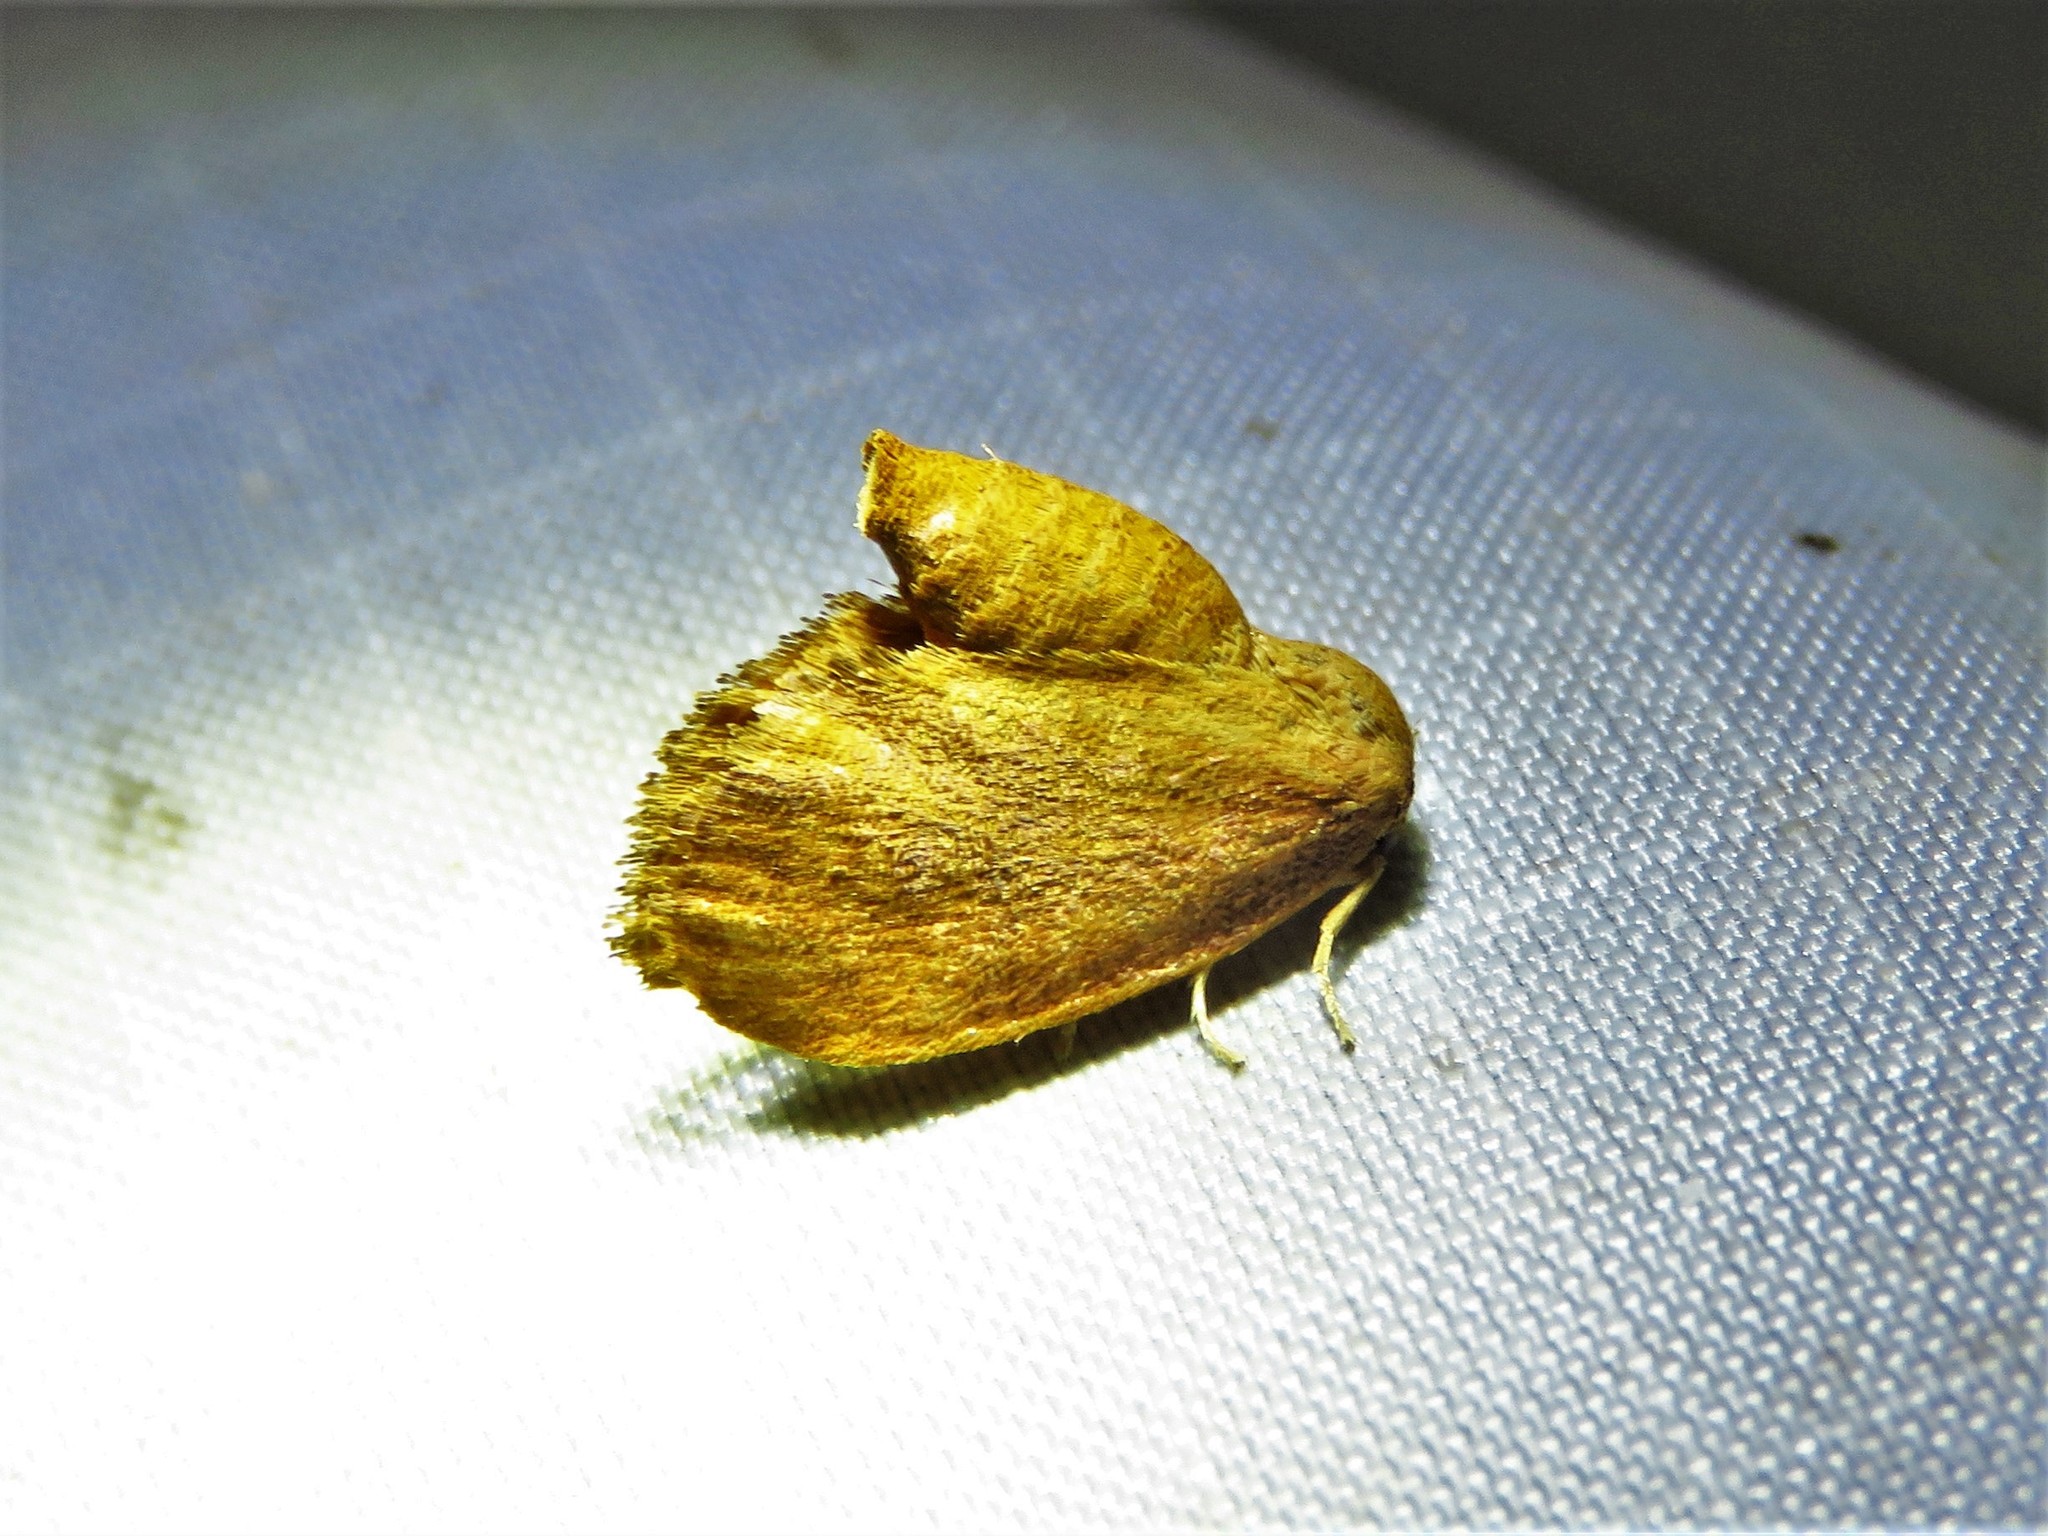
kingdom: Animalia
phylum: Arthropoda
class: Insecta
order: Lepidoptera
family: Limacodidae
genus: Isa
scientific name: Isa textula
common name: Crowned slug moth
